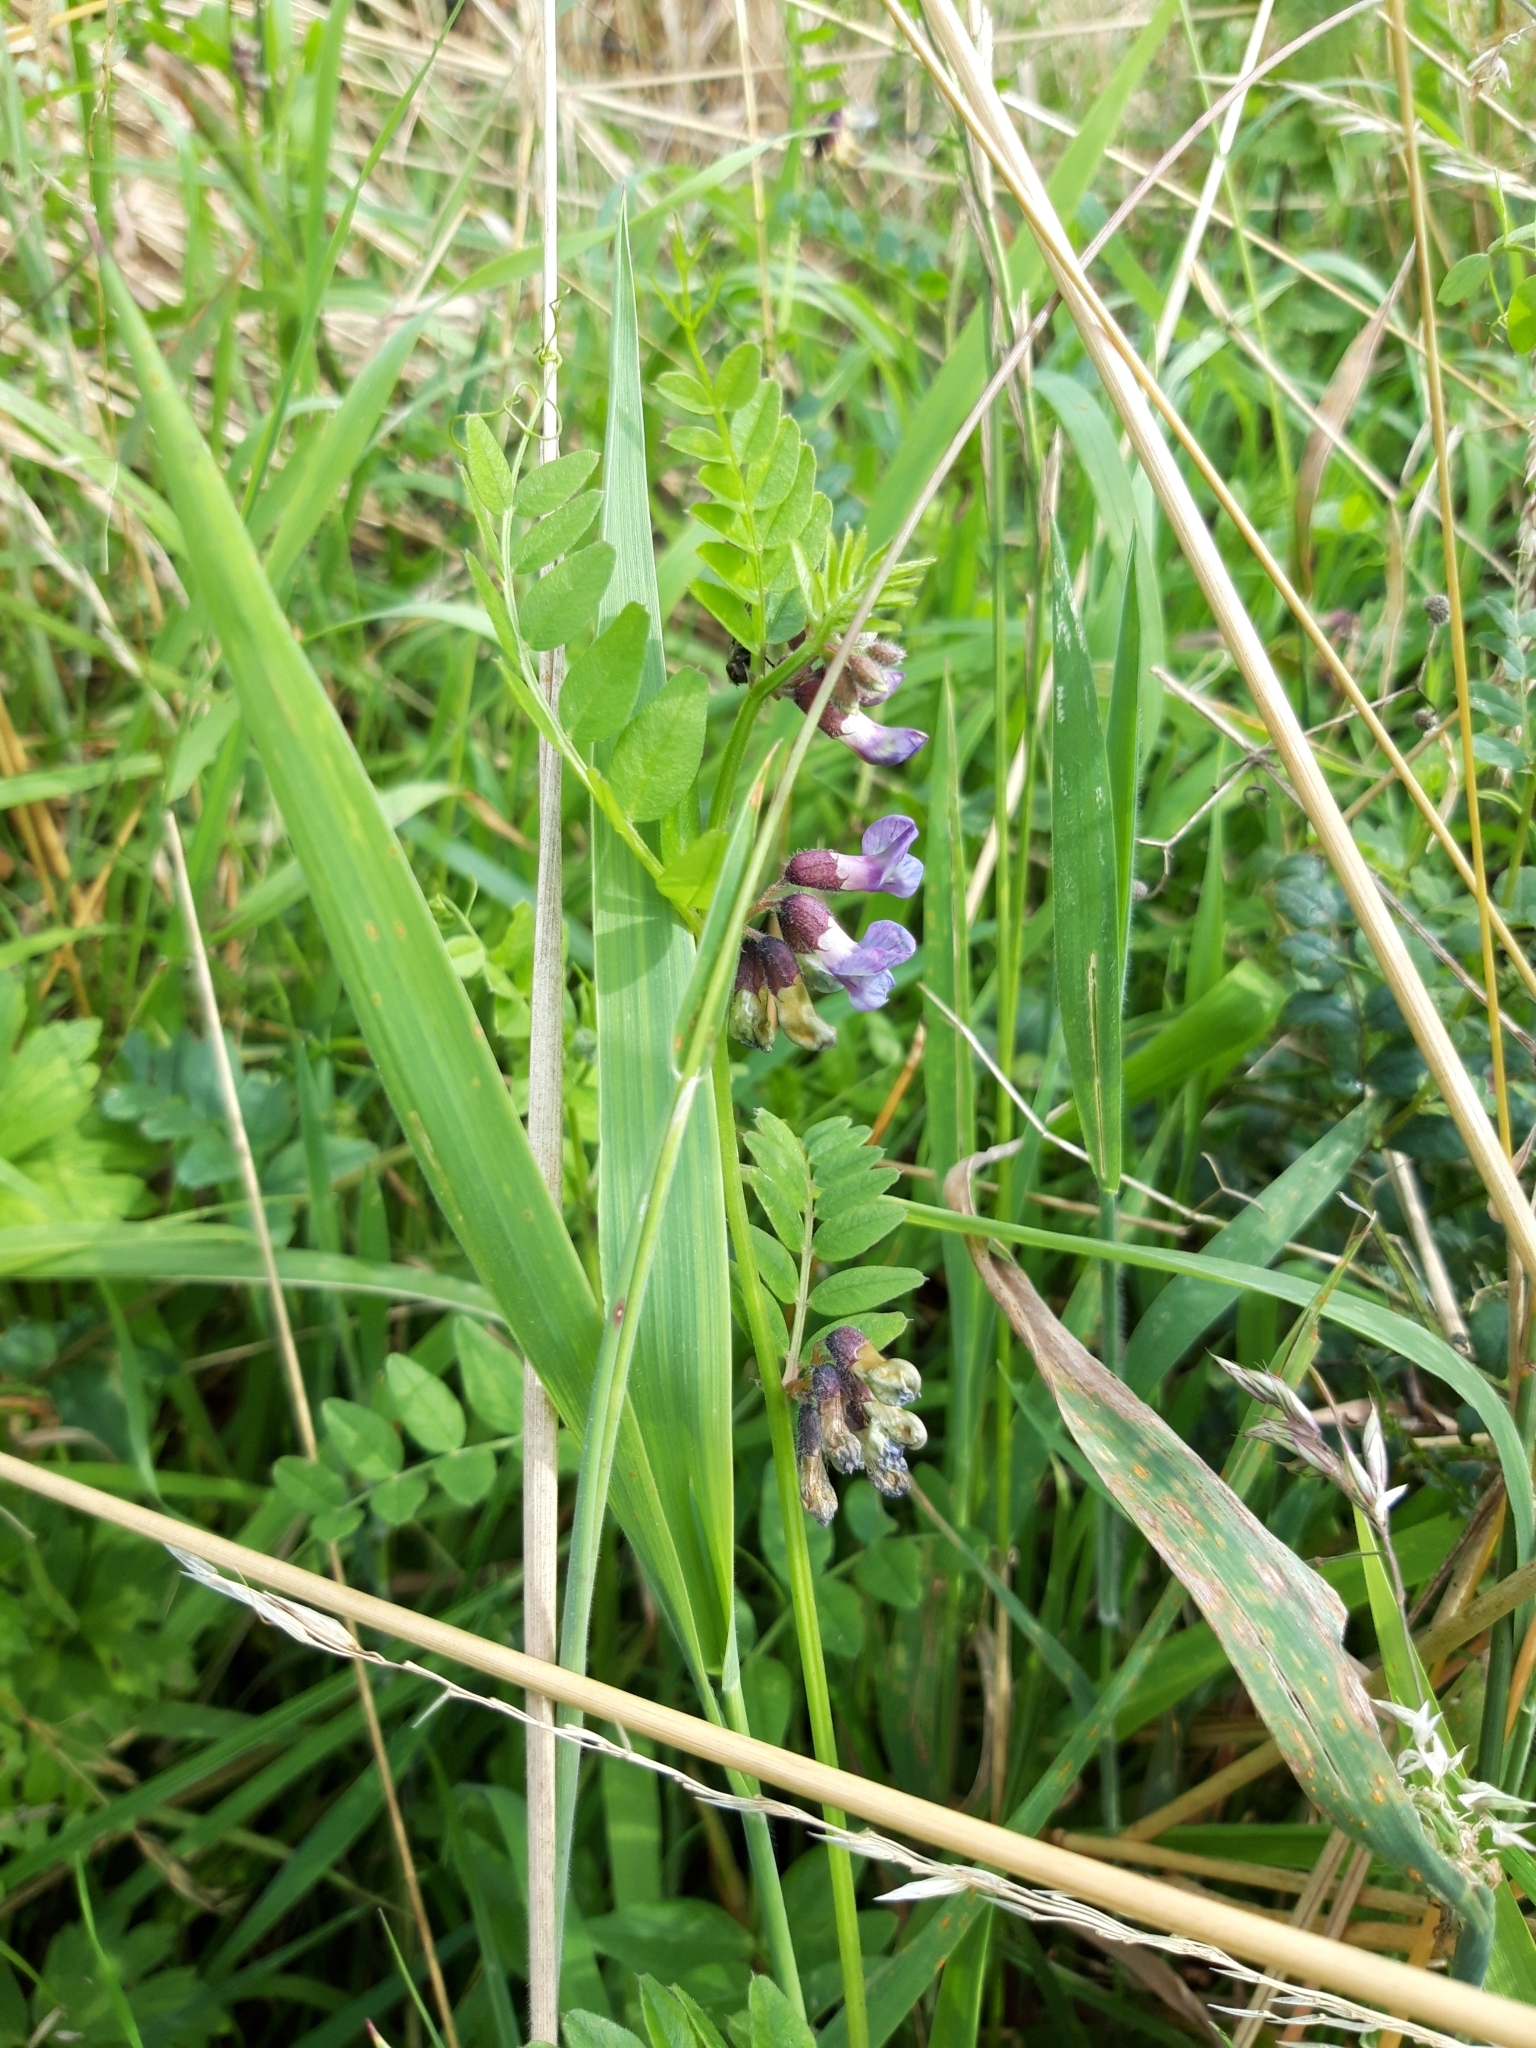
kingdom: Plantae
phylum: Tracheophyta
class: Magnoliopsida
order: Fabales
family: Fabaceae
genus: Vicia
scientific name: Vicia sepium
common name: Bush vetch
